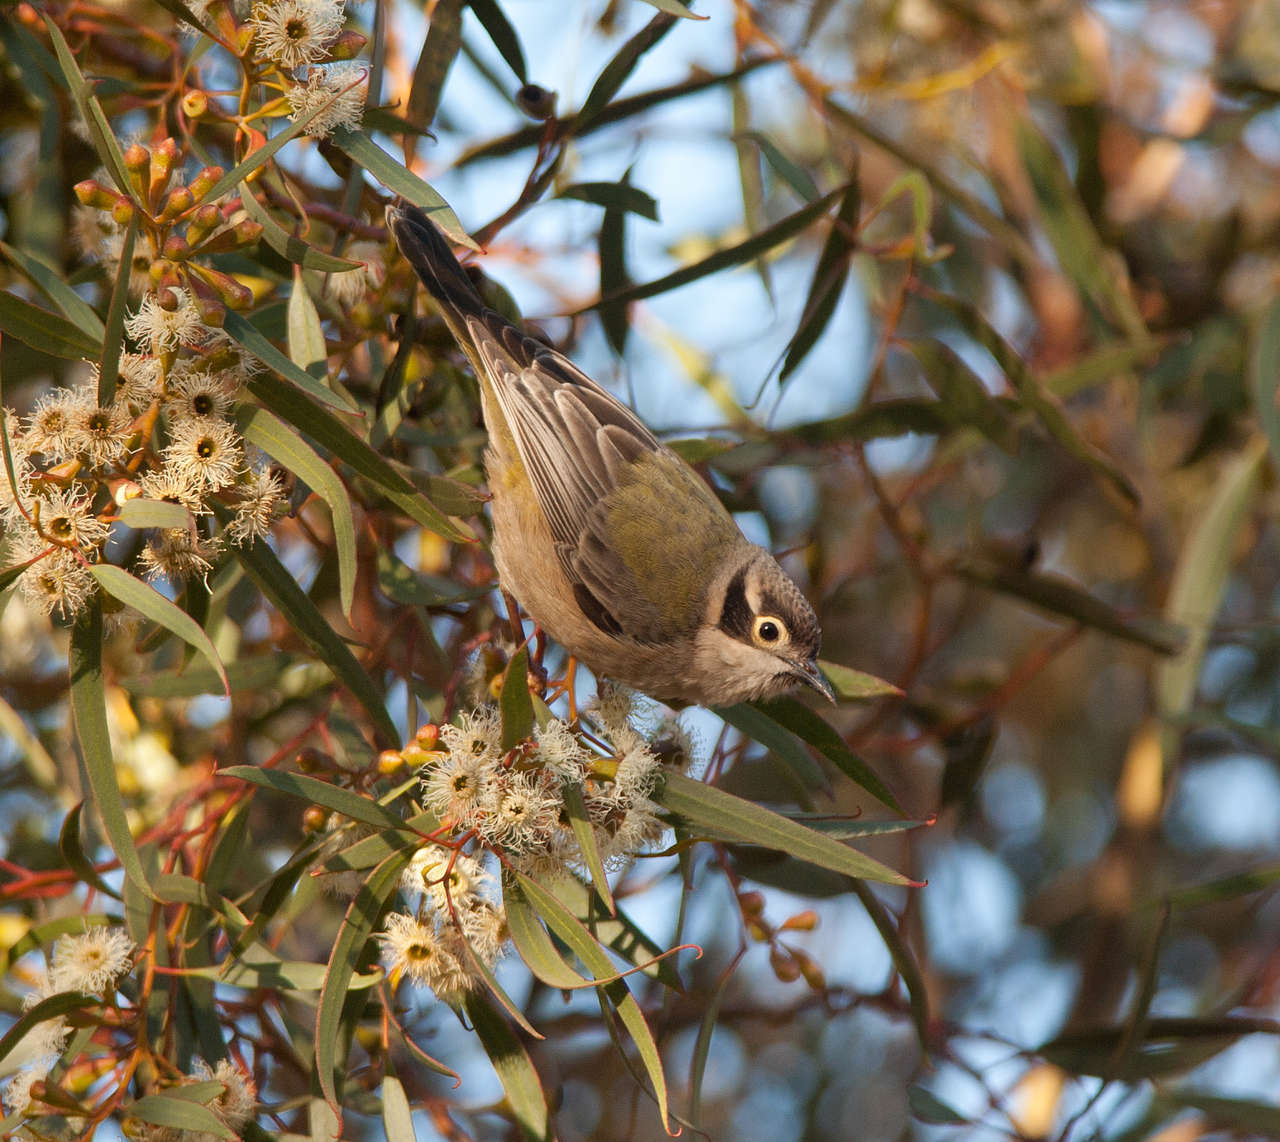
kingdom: Animalia
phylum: Chordata
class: Aves
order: Passeriformes
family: Meliphagidae
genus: Melithreptus
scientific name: Melithreptus brevirostris
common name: Brown-headed honeyeater
